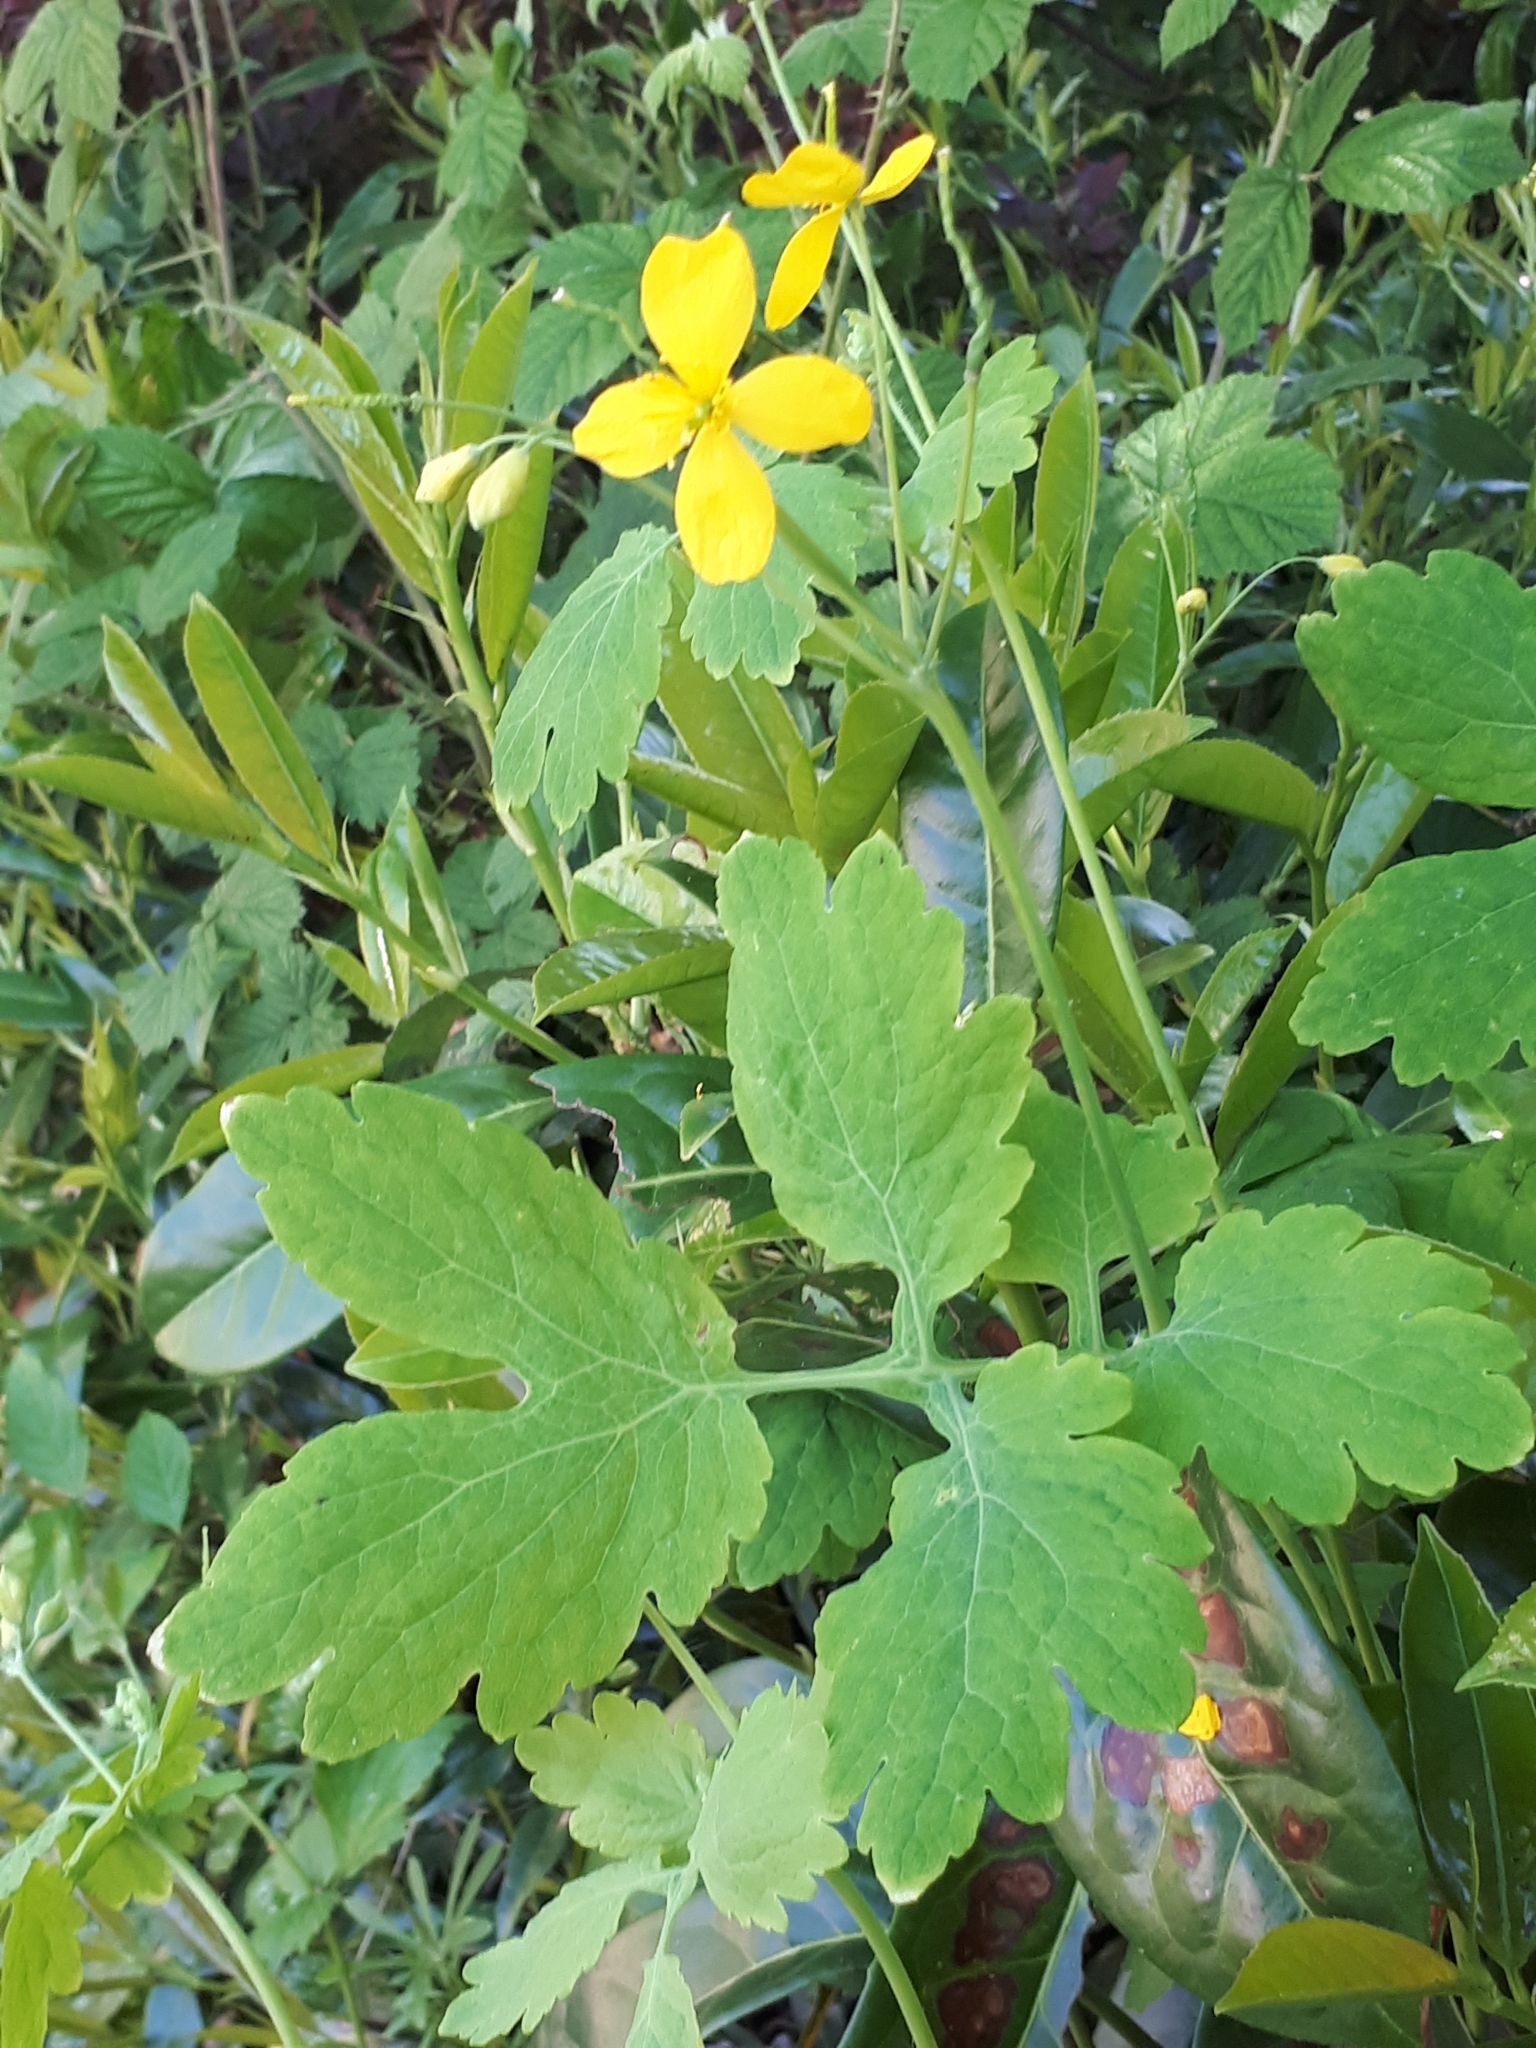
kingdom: Plantae
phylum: Tracheophyta
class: Magnoliopsida
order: Ranunculales
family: Papaveraceae
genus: Chelidonium
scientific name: Chelidonium majus
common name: Greater celandine
